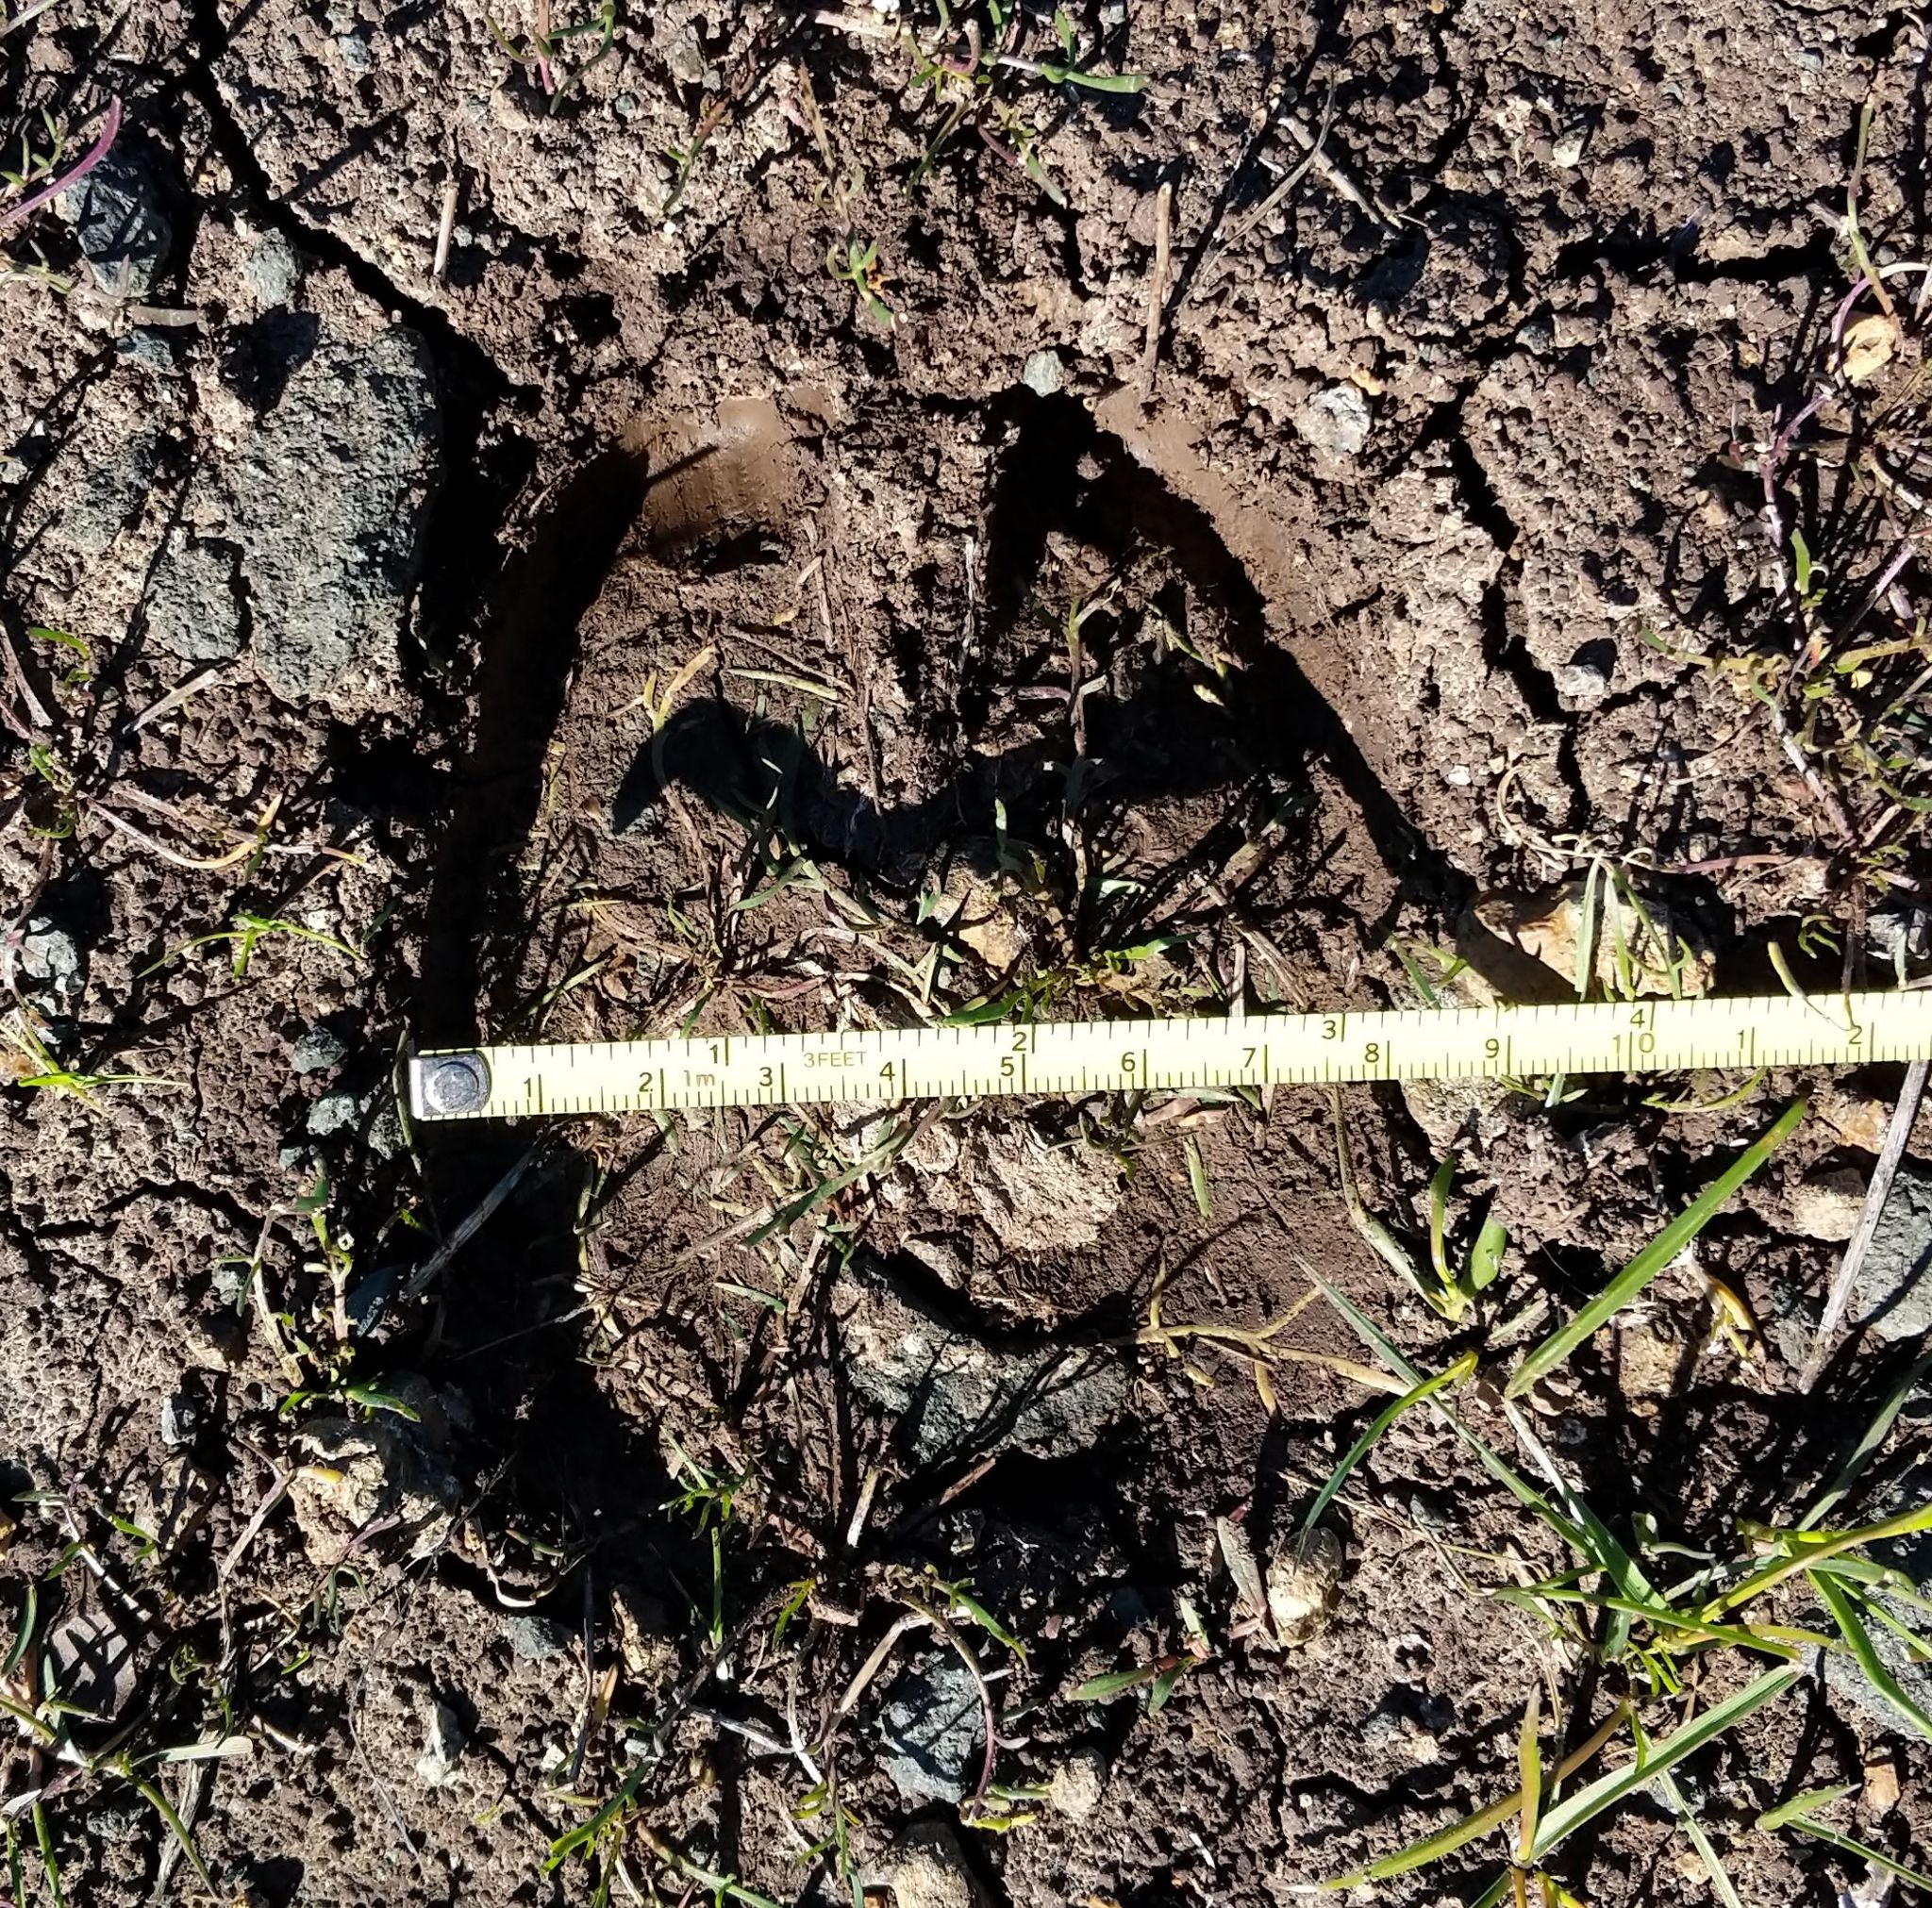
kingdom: Animalia
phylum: Chordata
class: Mammalia
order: Artiodactyla
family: Cervidae
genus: Cervus
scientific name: Cervus elaphus
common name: Red deer
